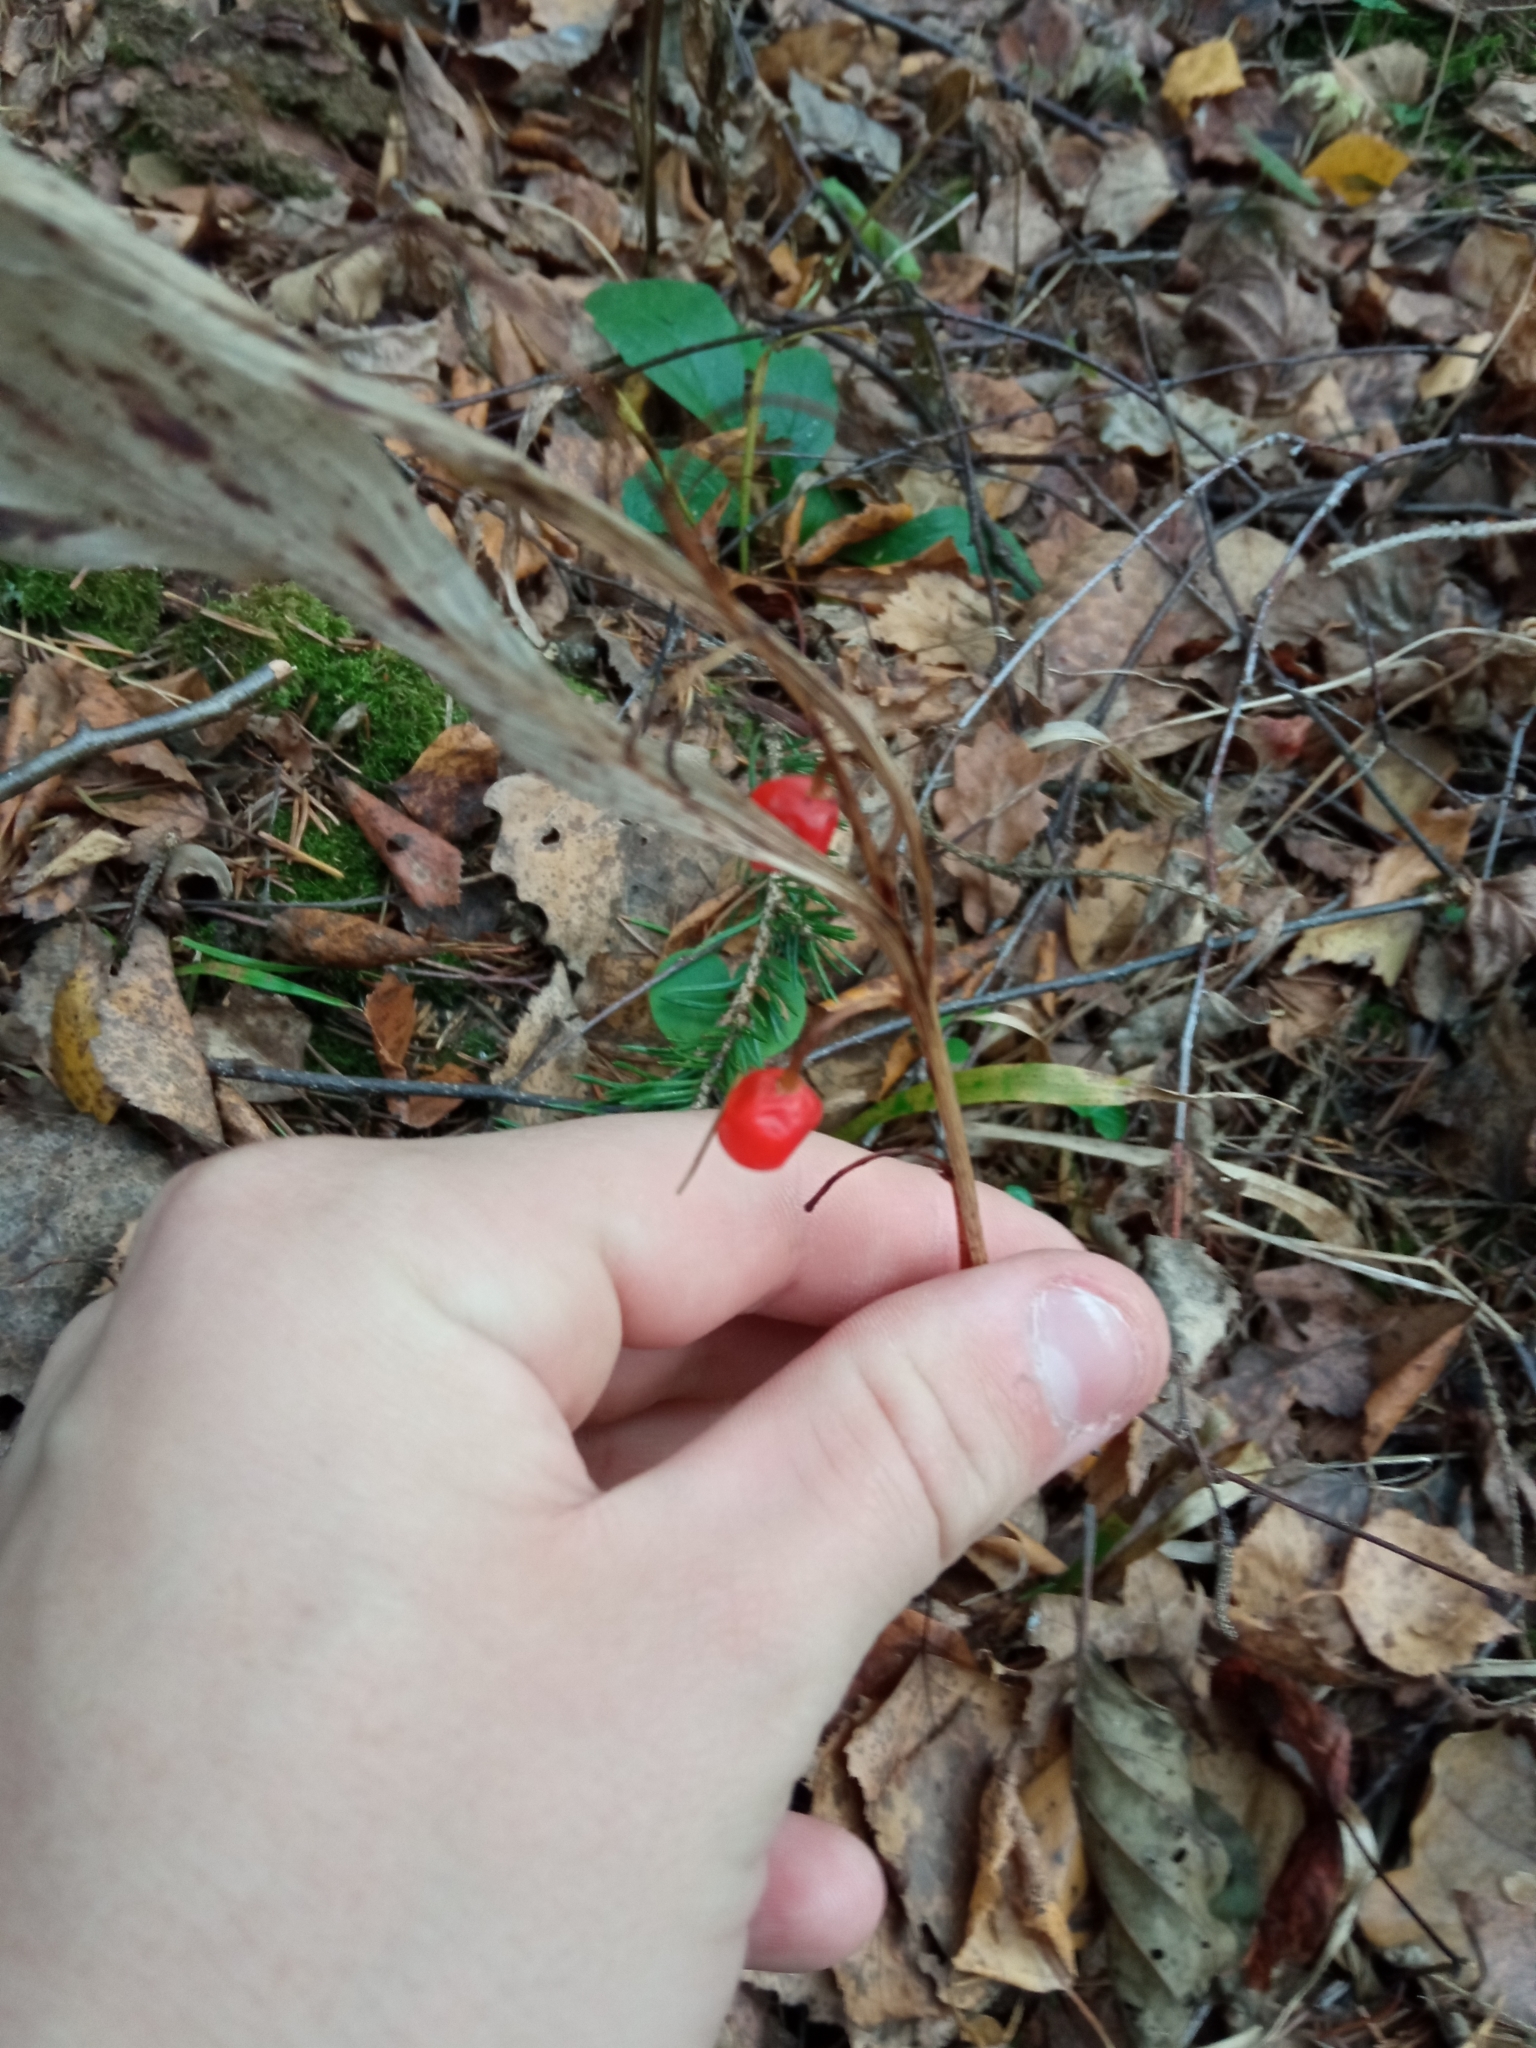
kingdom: Plantae
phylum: Tracheophyta
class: Liliopsida
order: Asparagales
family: Asparagaceae
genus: Convallaria
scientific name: Convallaria majalis
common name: Lily-of-the-valley
